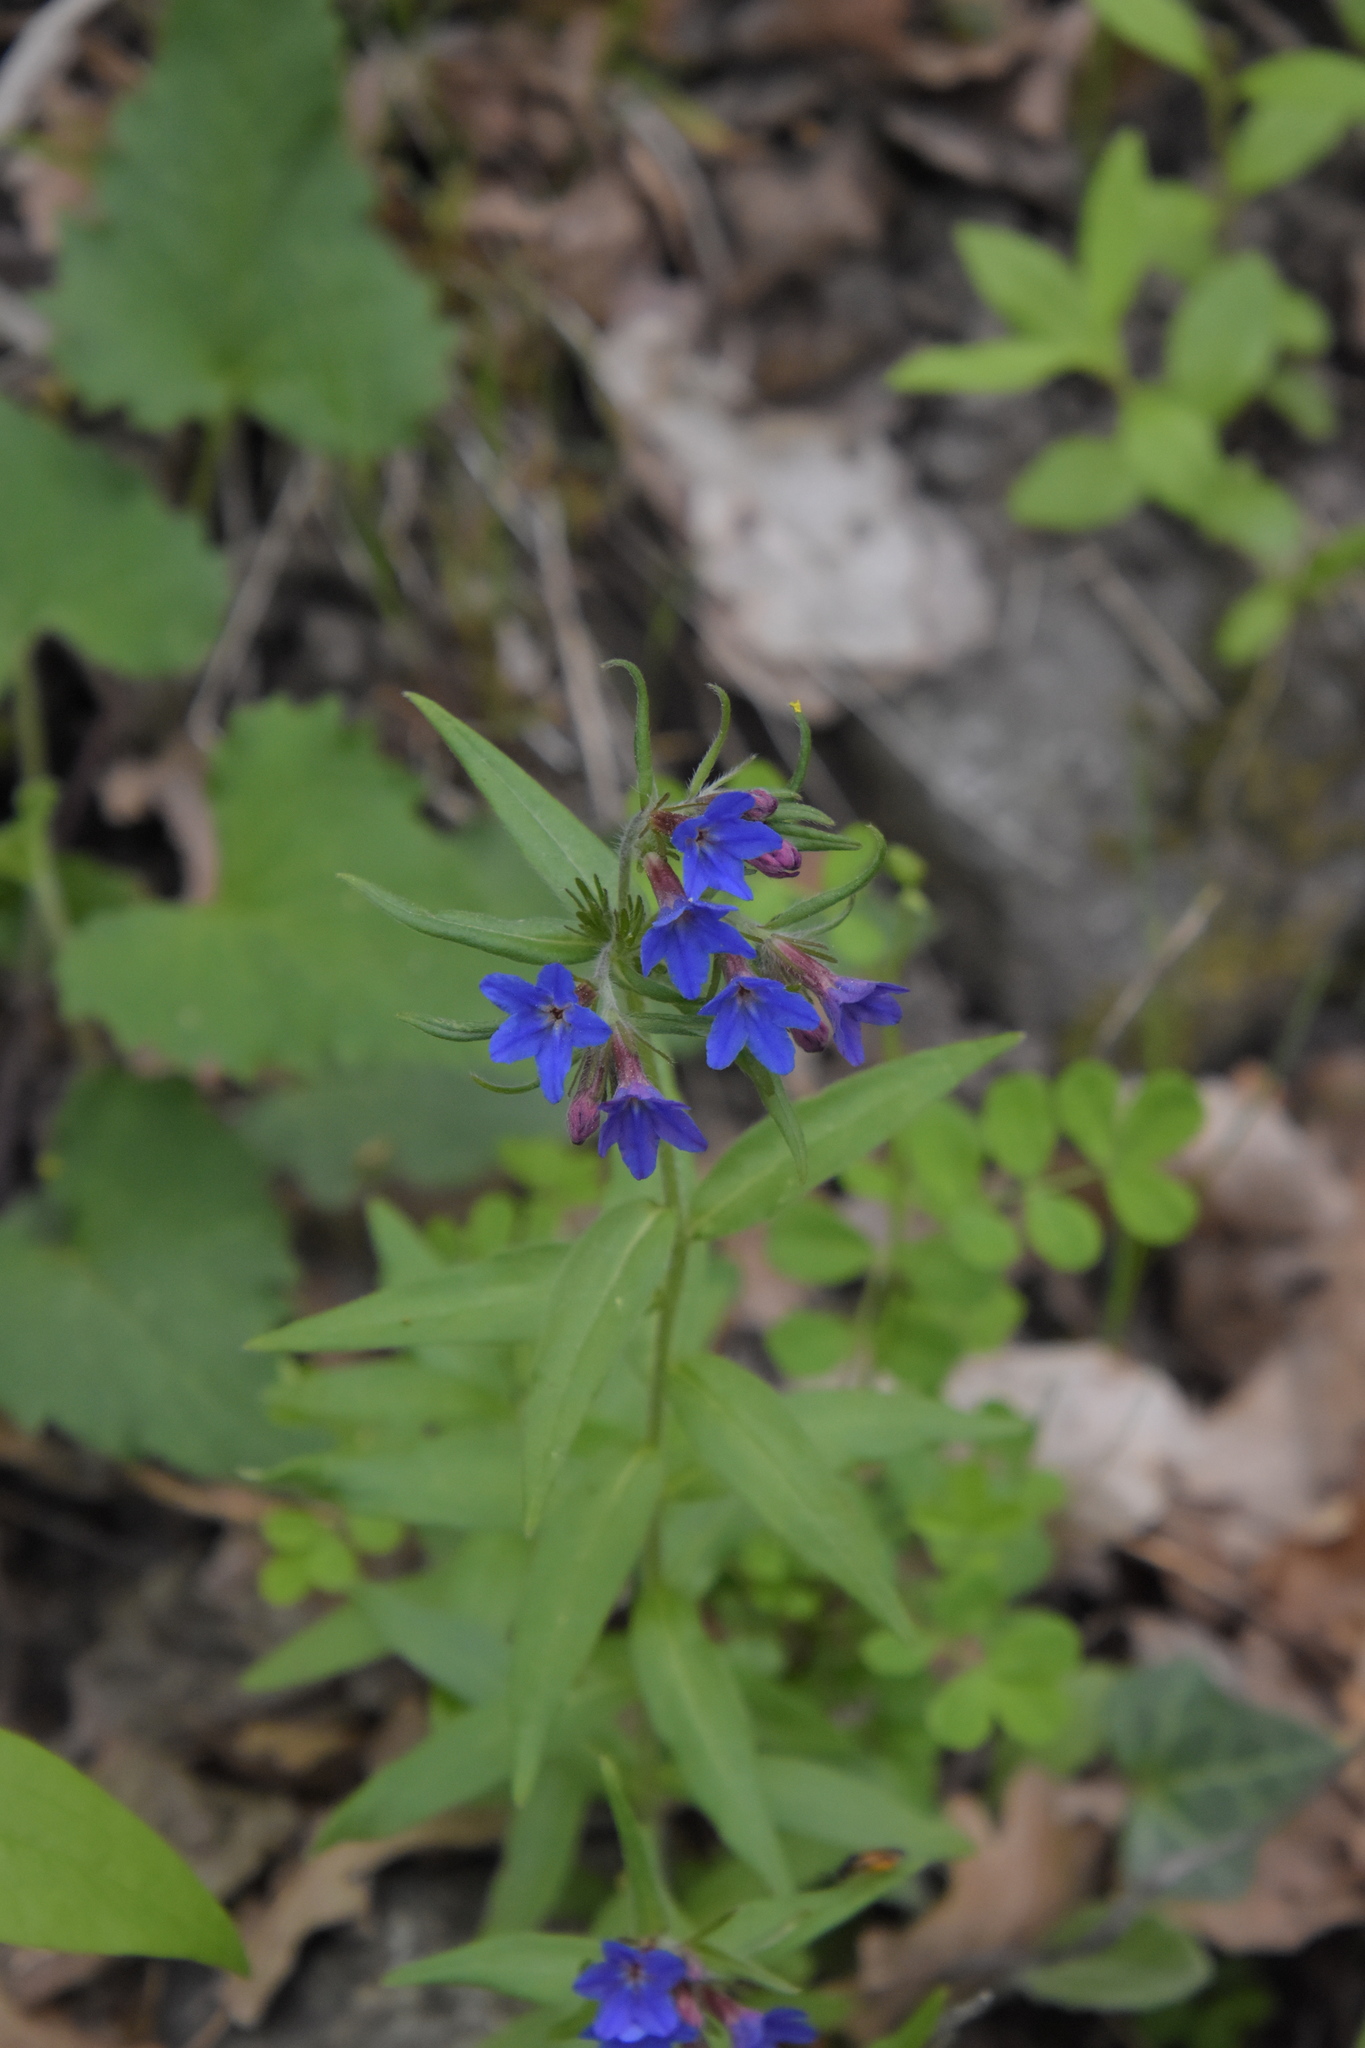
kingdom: Plantae
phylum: Tracheophyta
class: Magnoliopsida
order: Boraginales
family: Boraginaceae
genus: Aegonychon
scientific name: Aegonychon purpurocaeruleum
